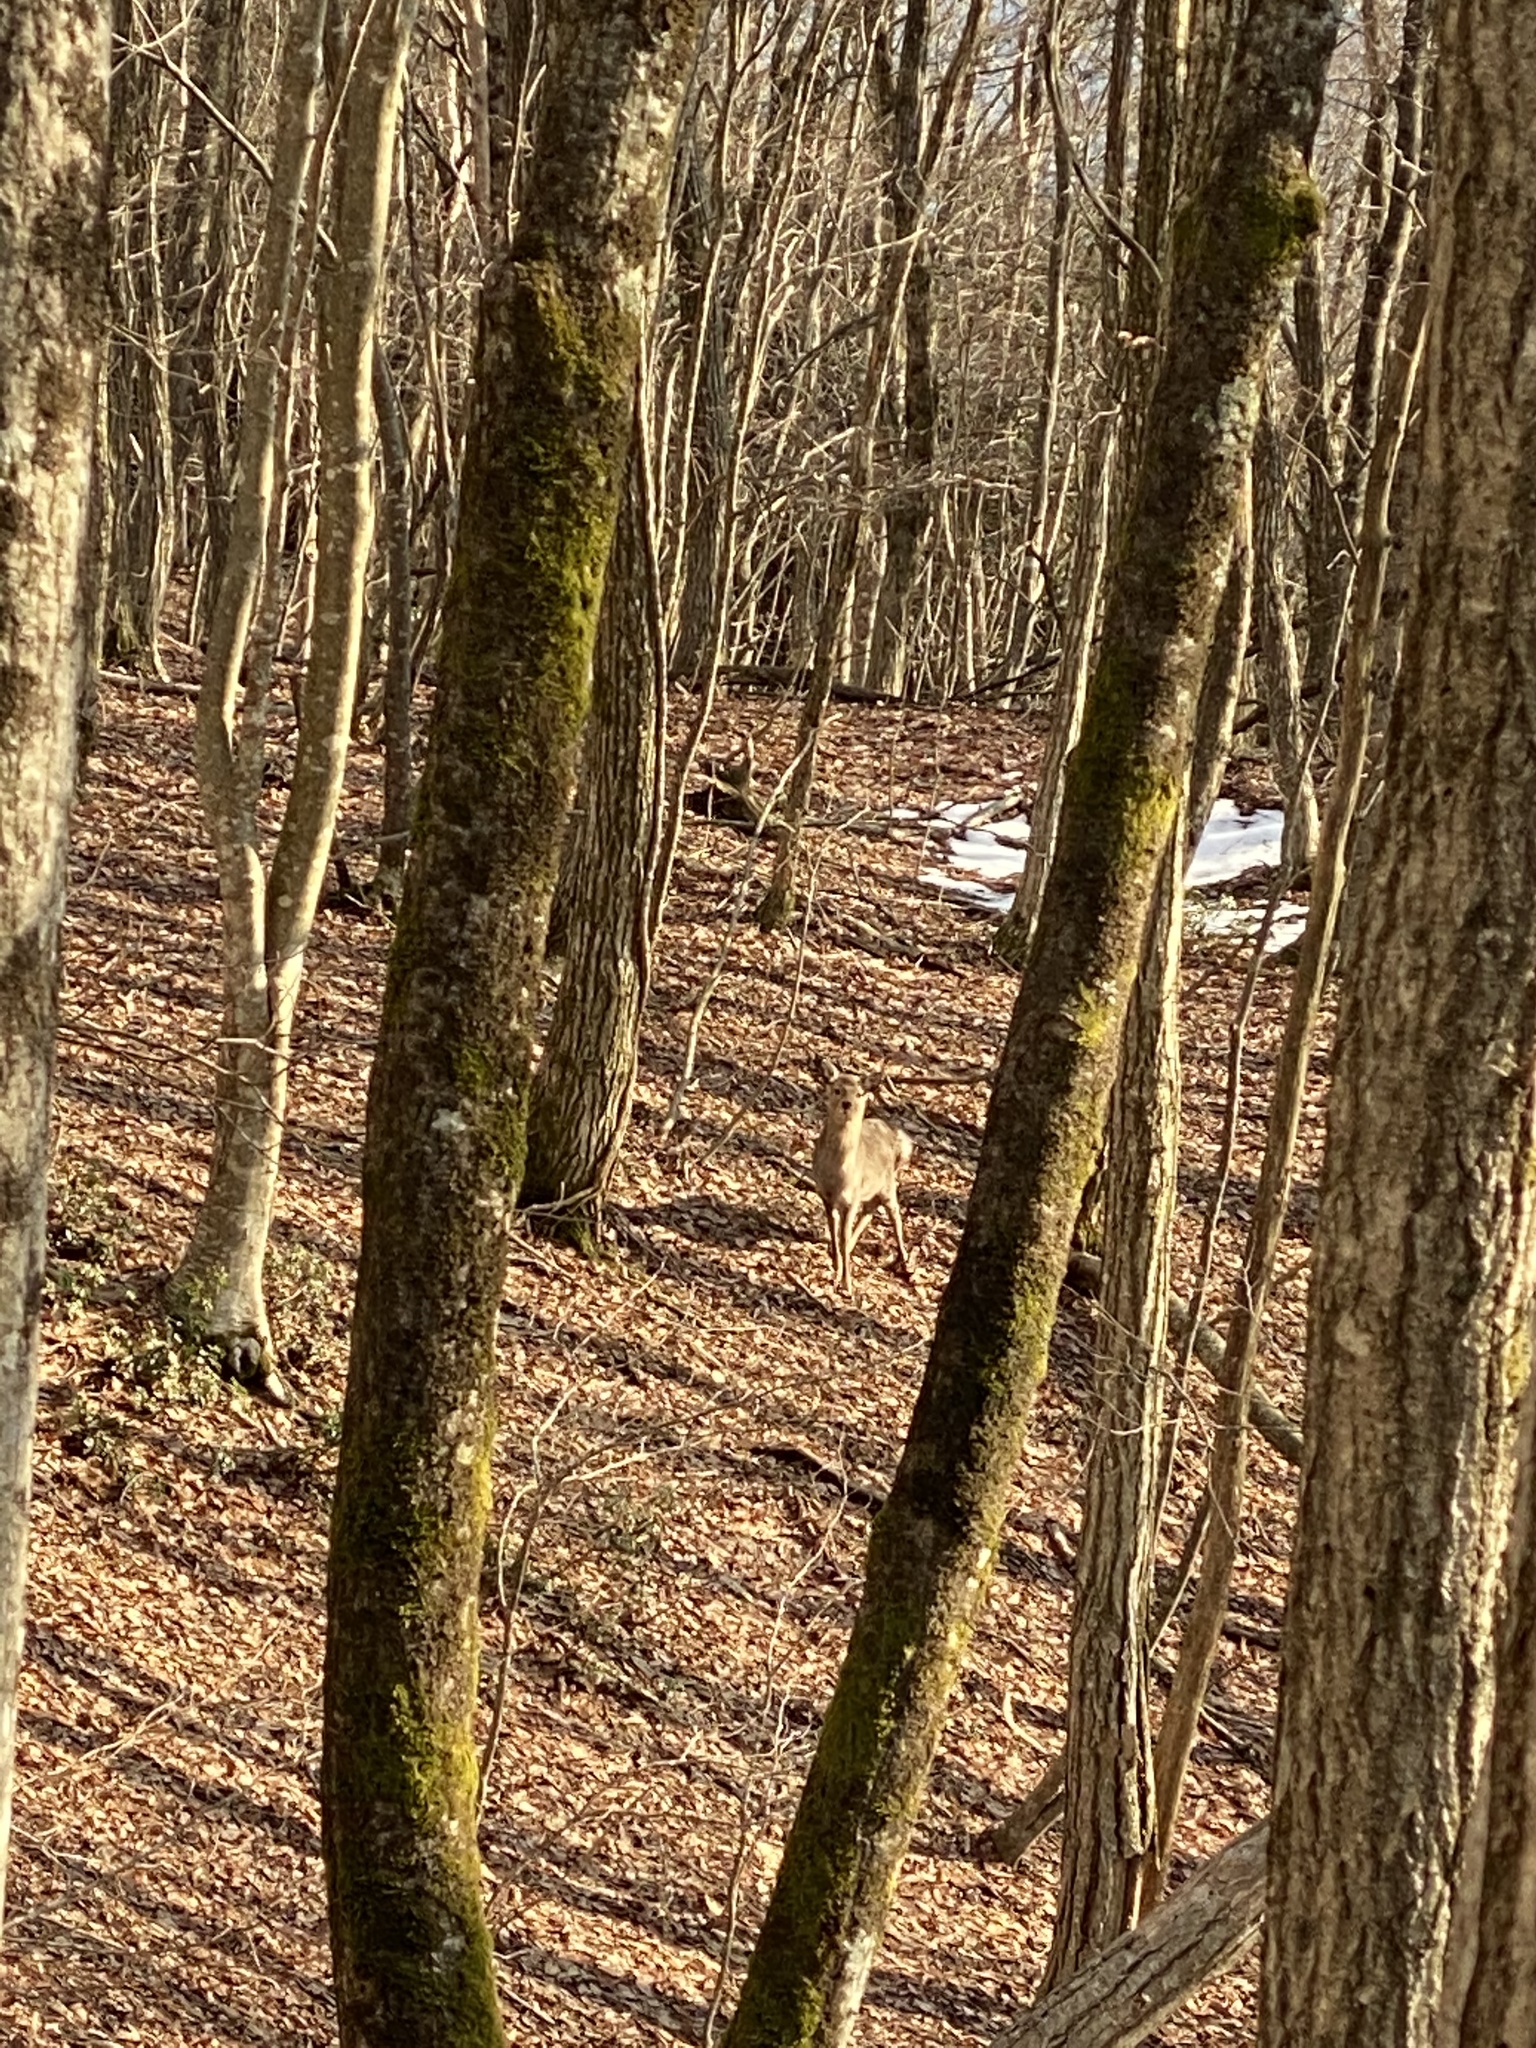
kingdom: Animalia
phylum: Chordata
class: Mammalia
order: Artiodactyla
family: Cervidae
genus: Cervus
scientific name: Cervus nippon
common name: Sika deer
